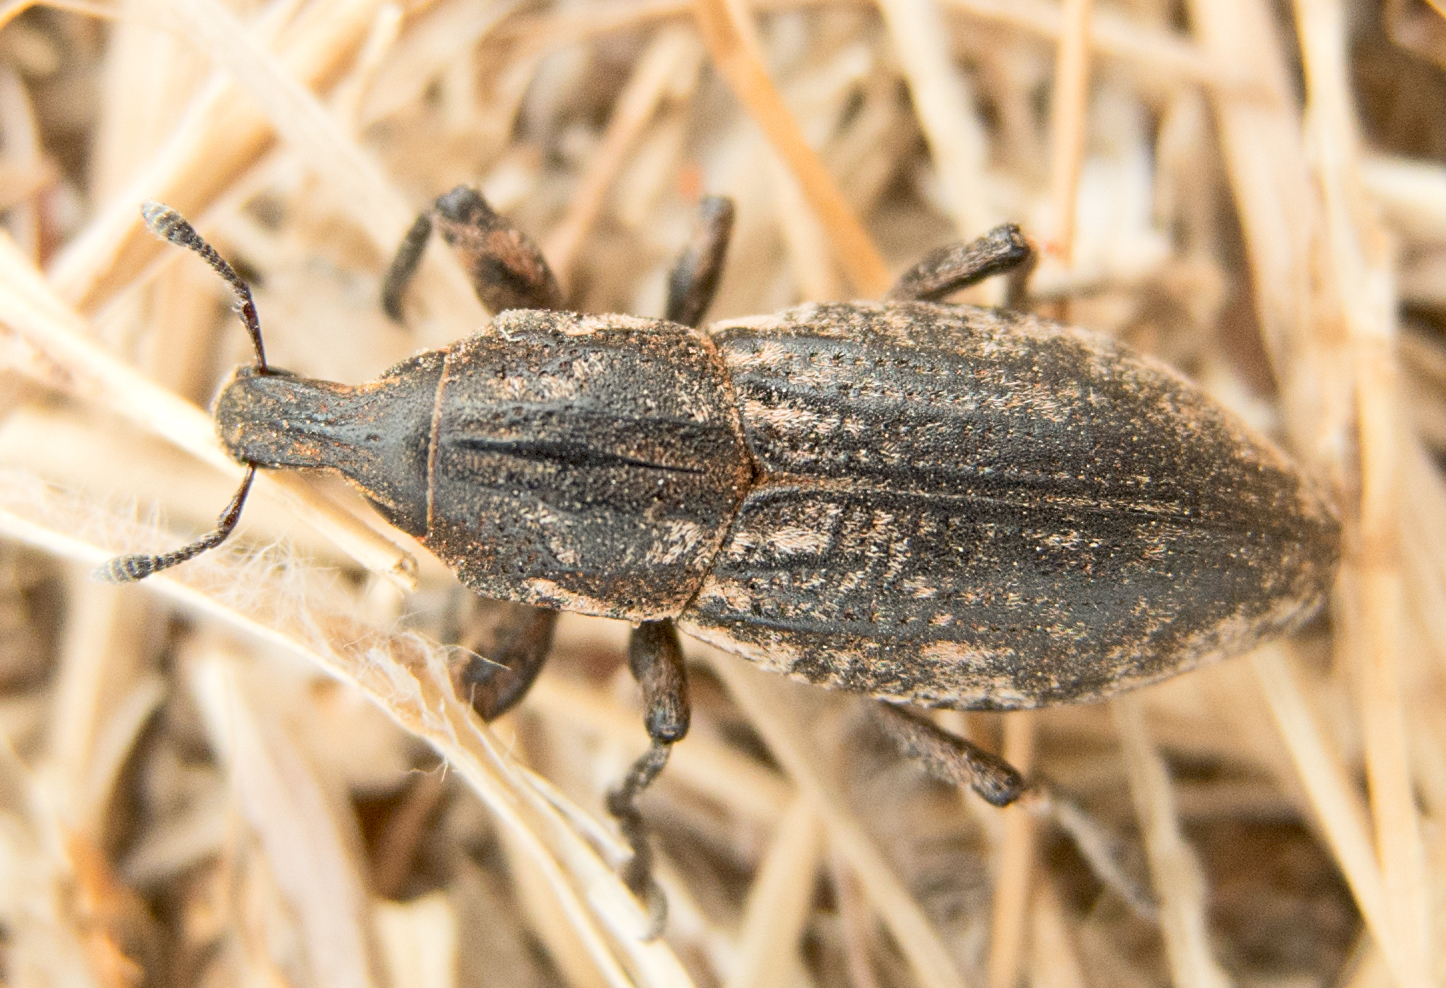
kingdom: Animalia
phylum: Arthropoda
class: Insecta
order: Coleoptera
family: Curculionidae
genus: Pseudocleonus
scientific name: Pseudocleonus cinereus
